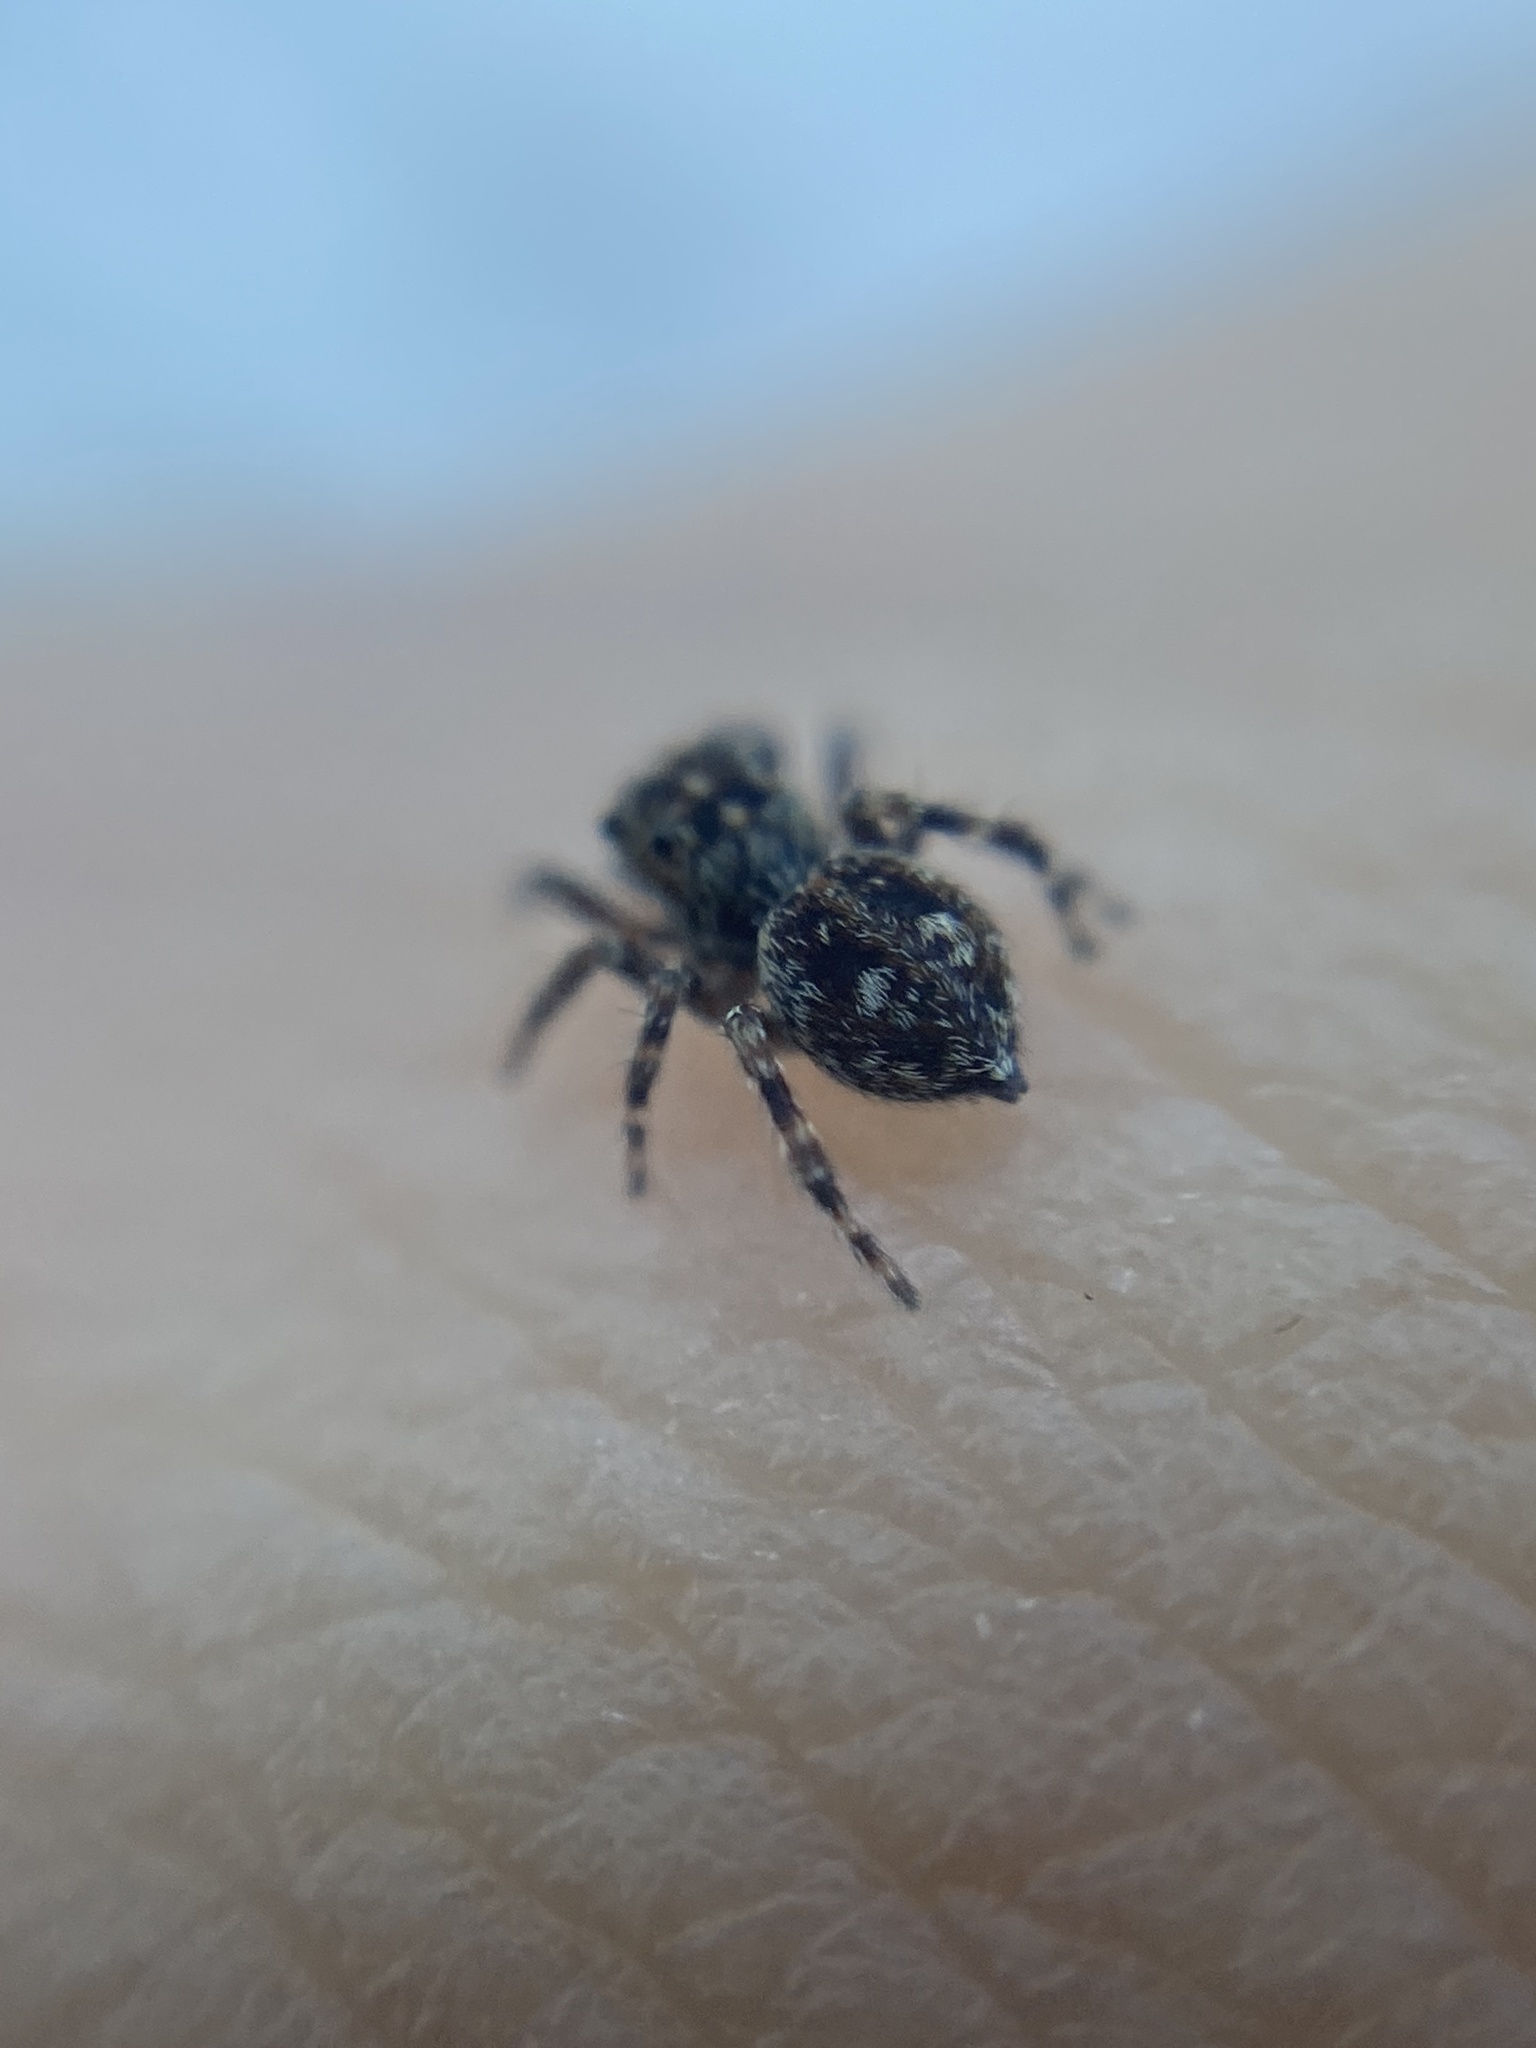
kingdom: Animalia
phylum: Arthropoda
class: Arachnida
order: Araneae
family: Salticidae
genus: Attulus
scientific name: Attulus pubescens
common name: Jumping spider
